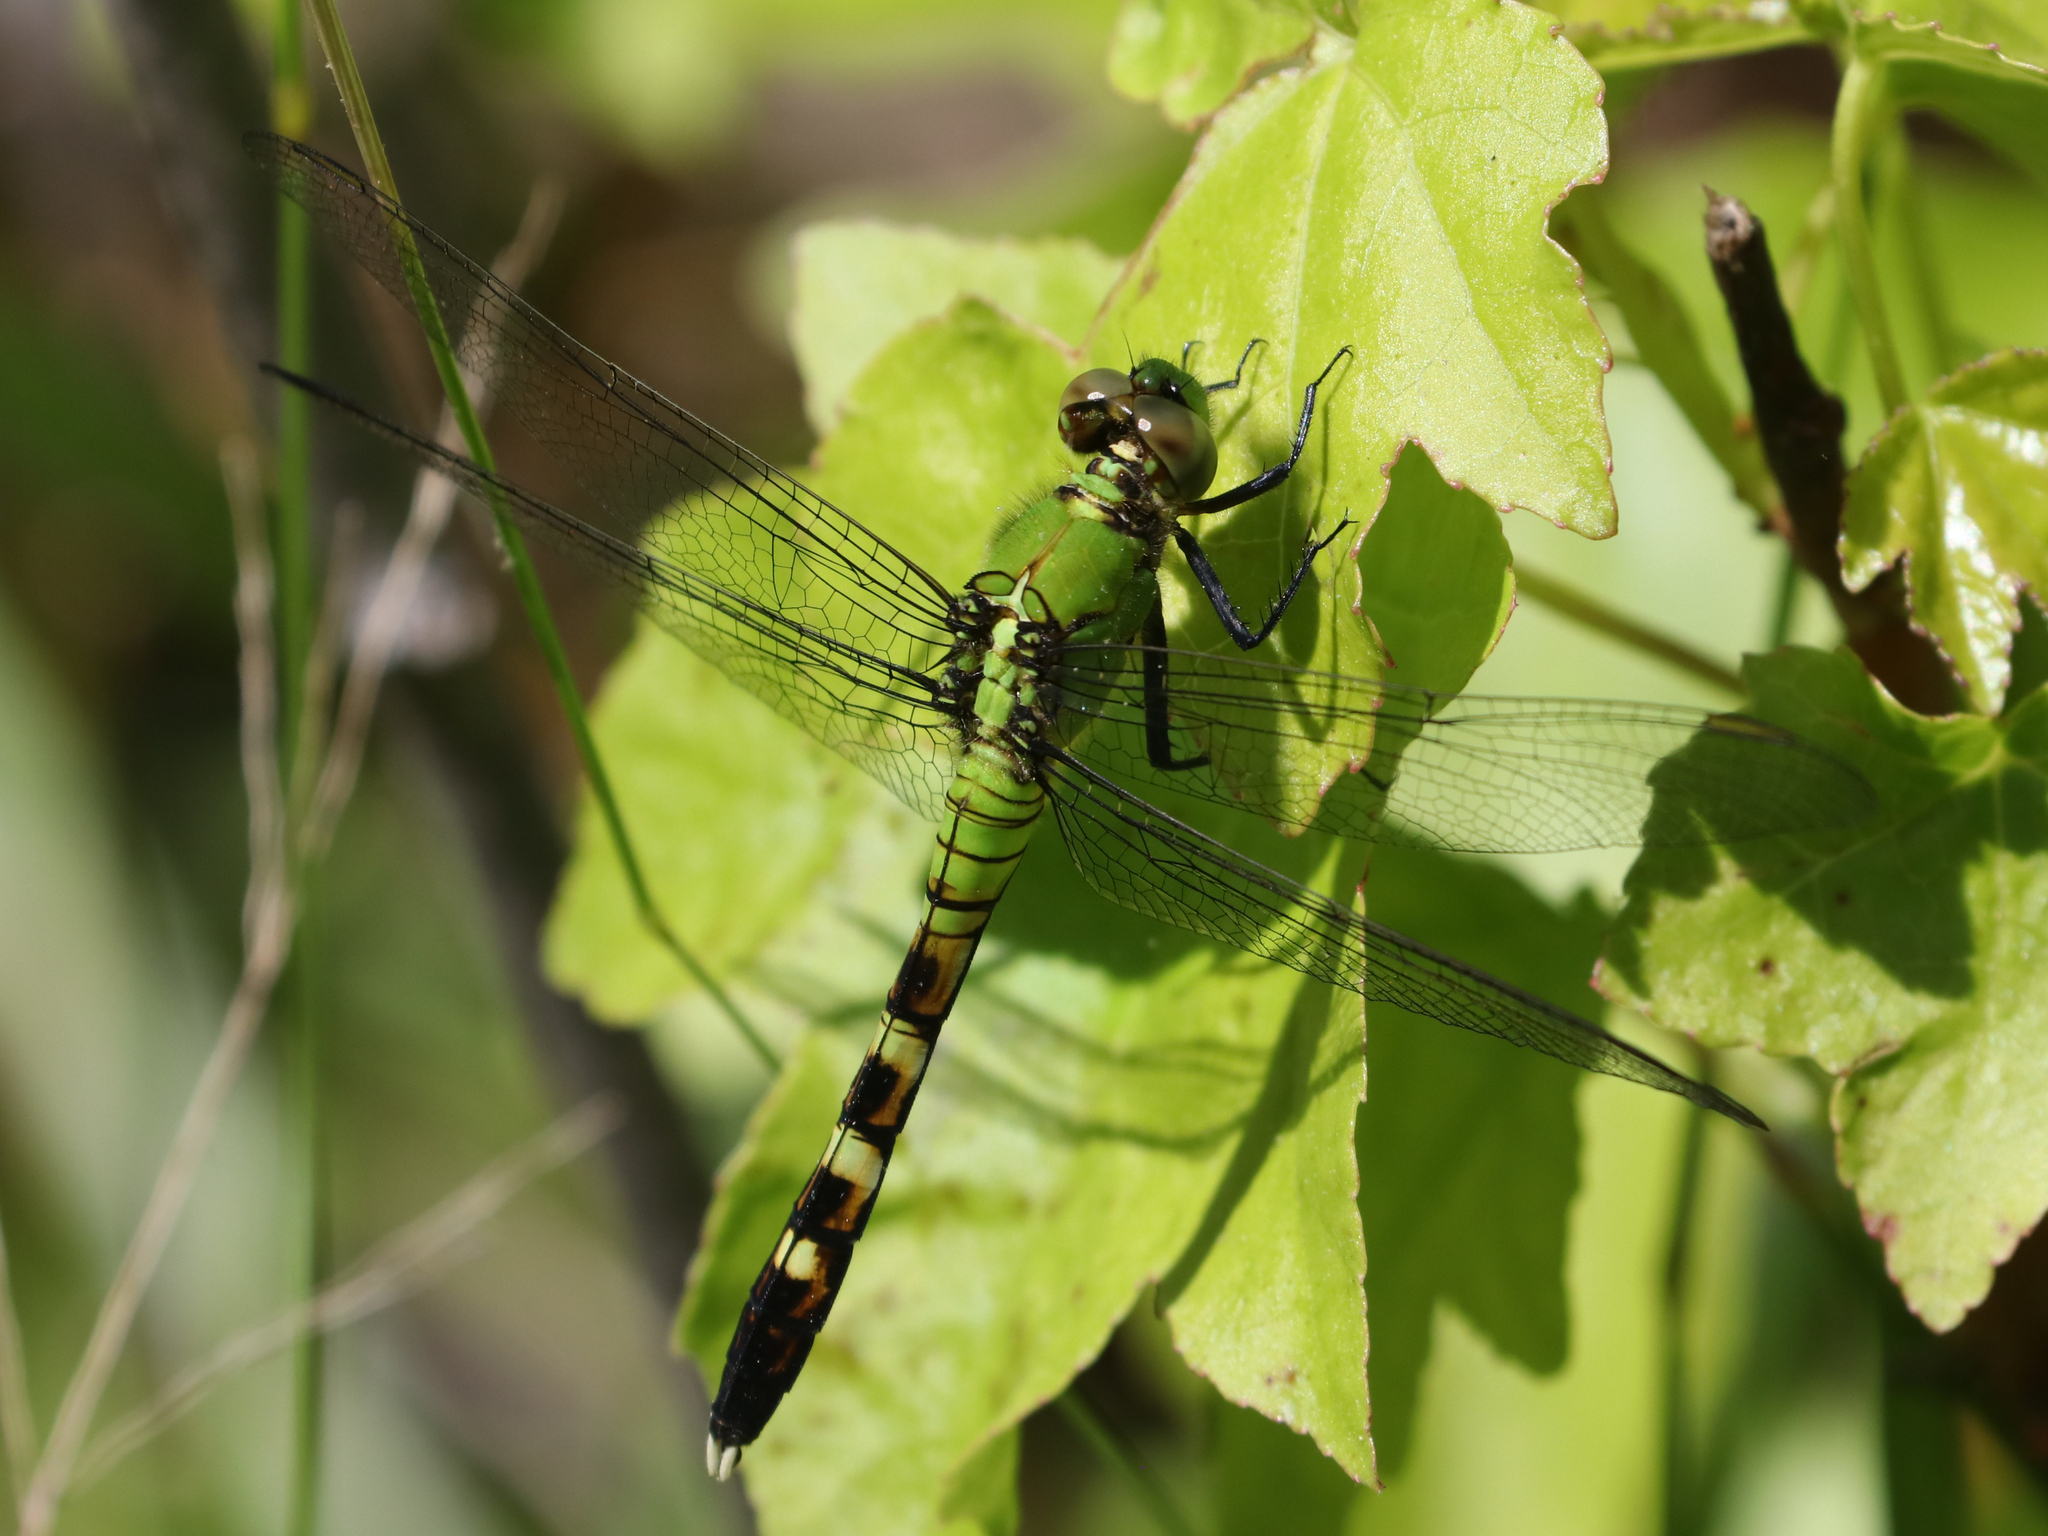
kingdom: Animalia
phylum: Arthropoda
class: Insecta
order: Odonata
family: Libellulidae
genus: Erythemis
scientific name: Erythemis simplicicollis
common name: Eastern pondhawk
